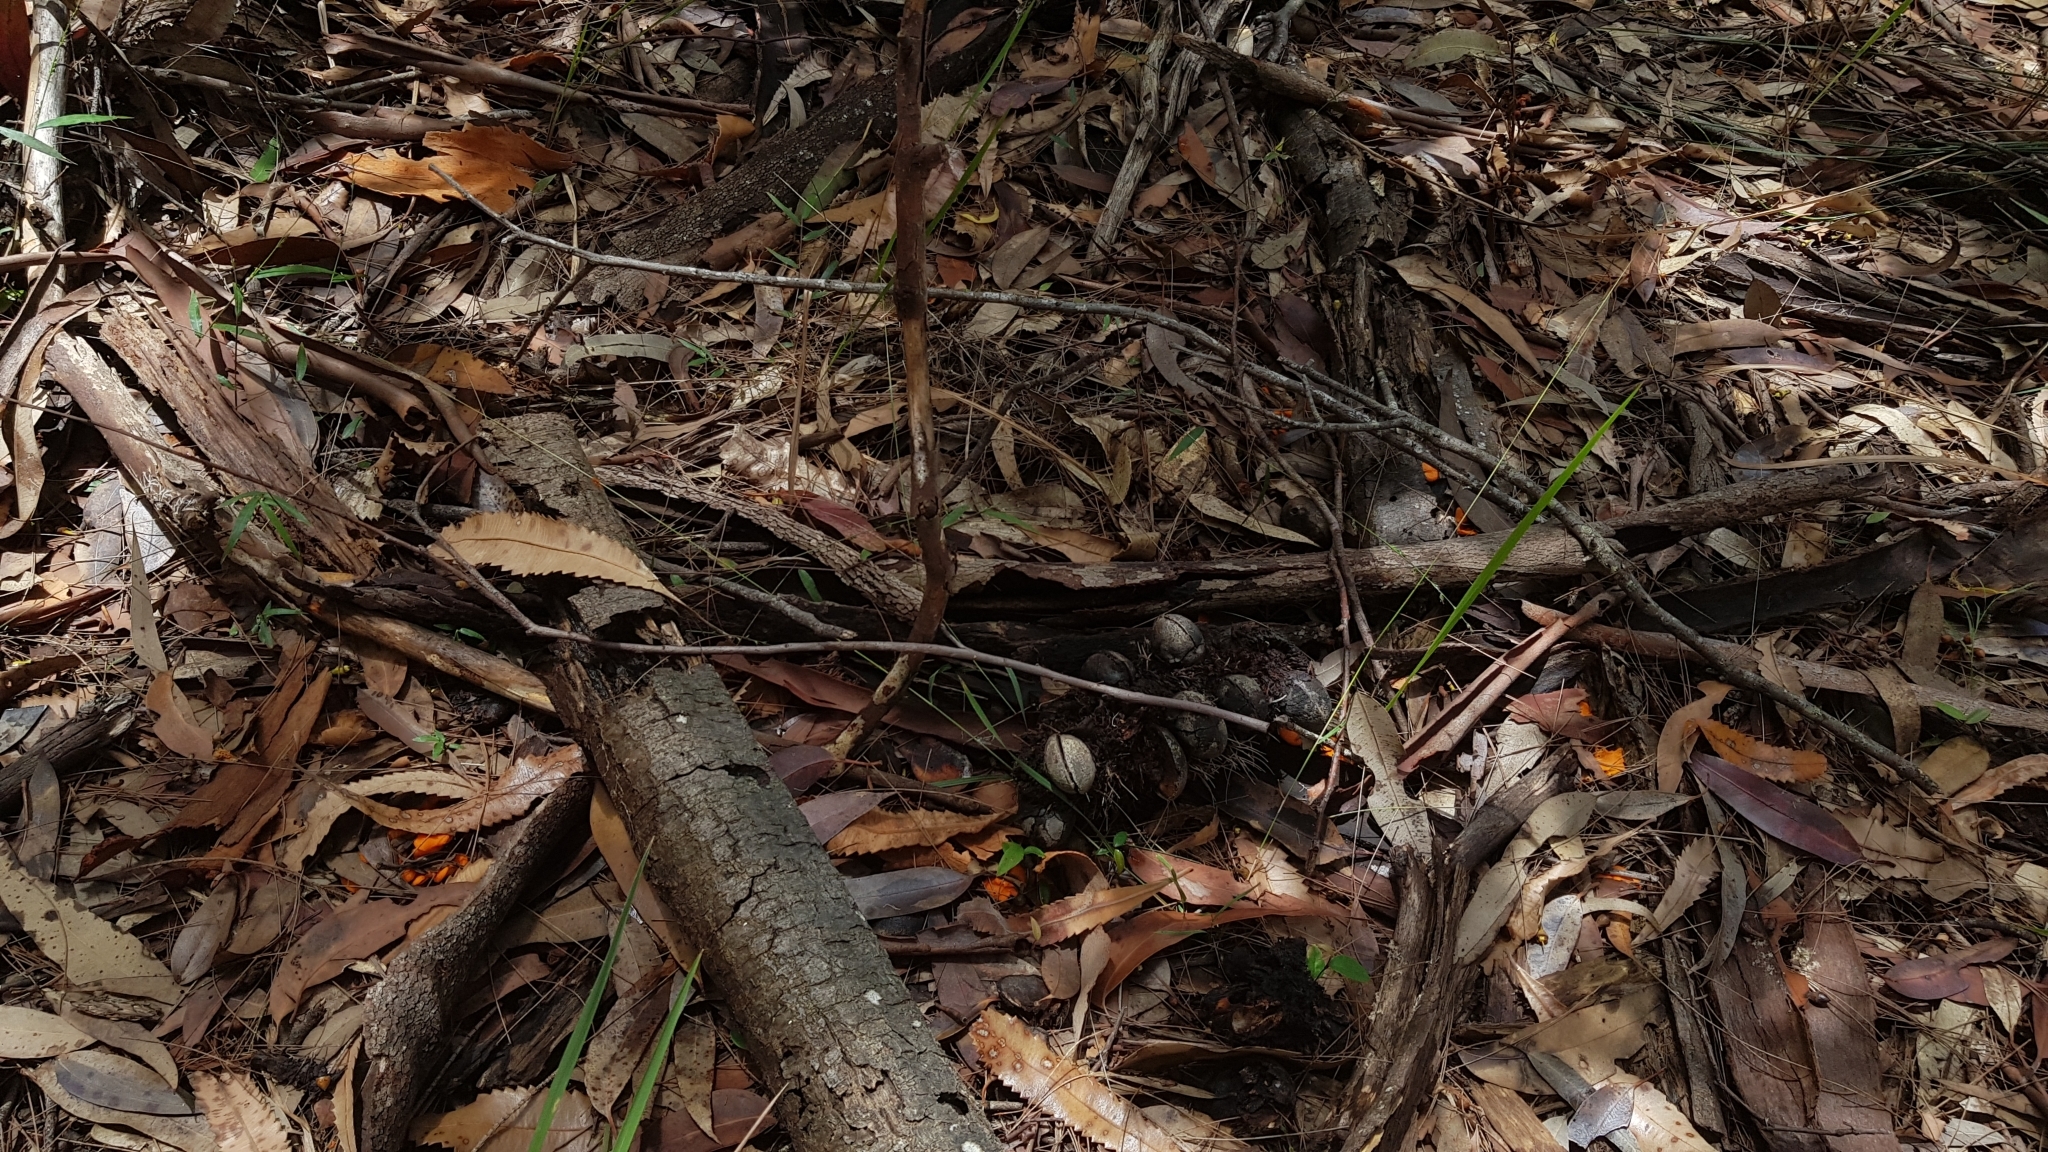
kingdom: Fungi
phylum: Basidiomycota
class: Agaricomycetes
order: Cantharellales
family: Hydnaceae
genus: Cantharellus
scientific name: Cantharellus
